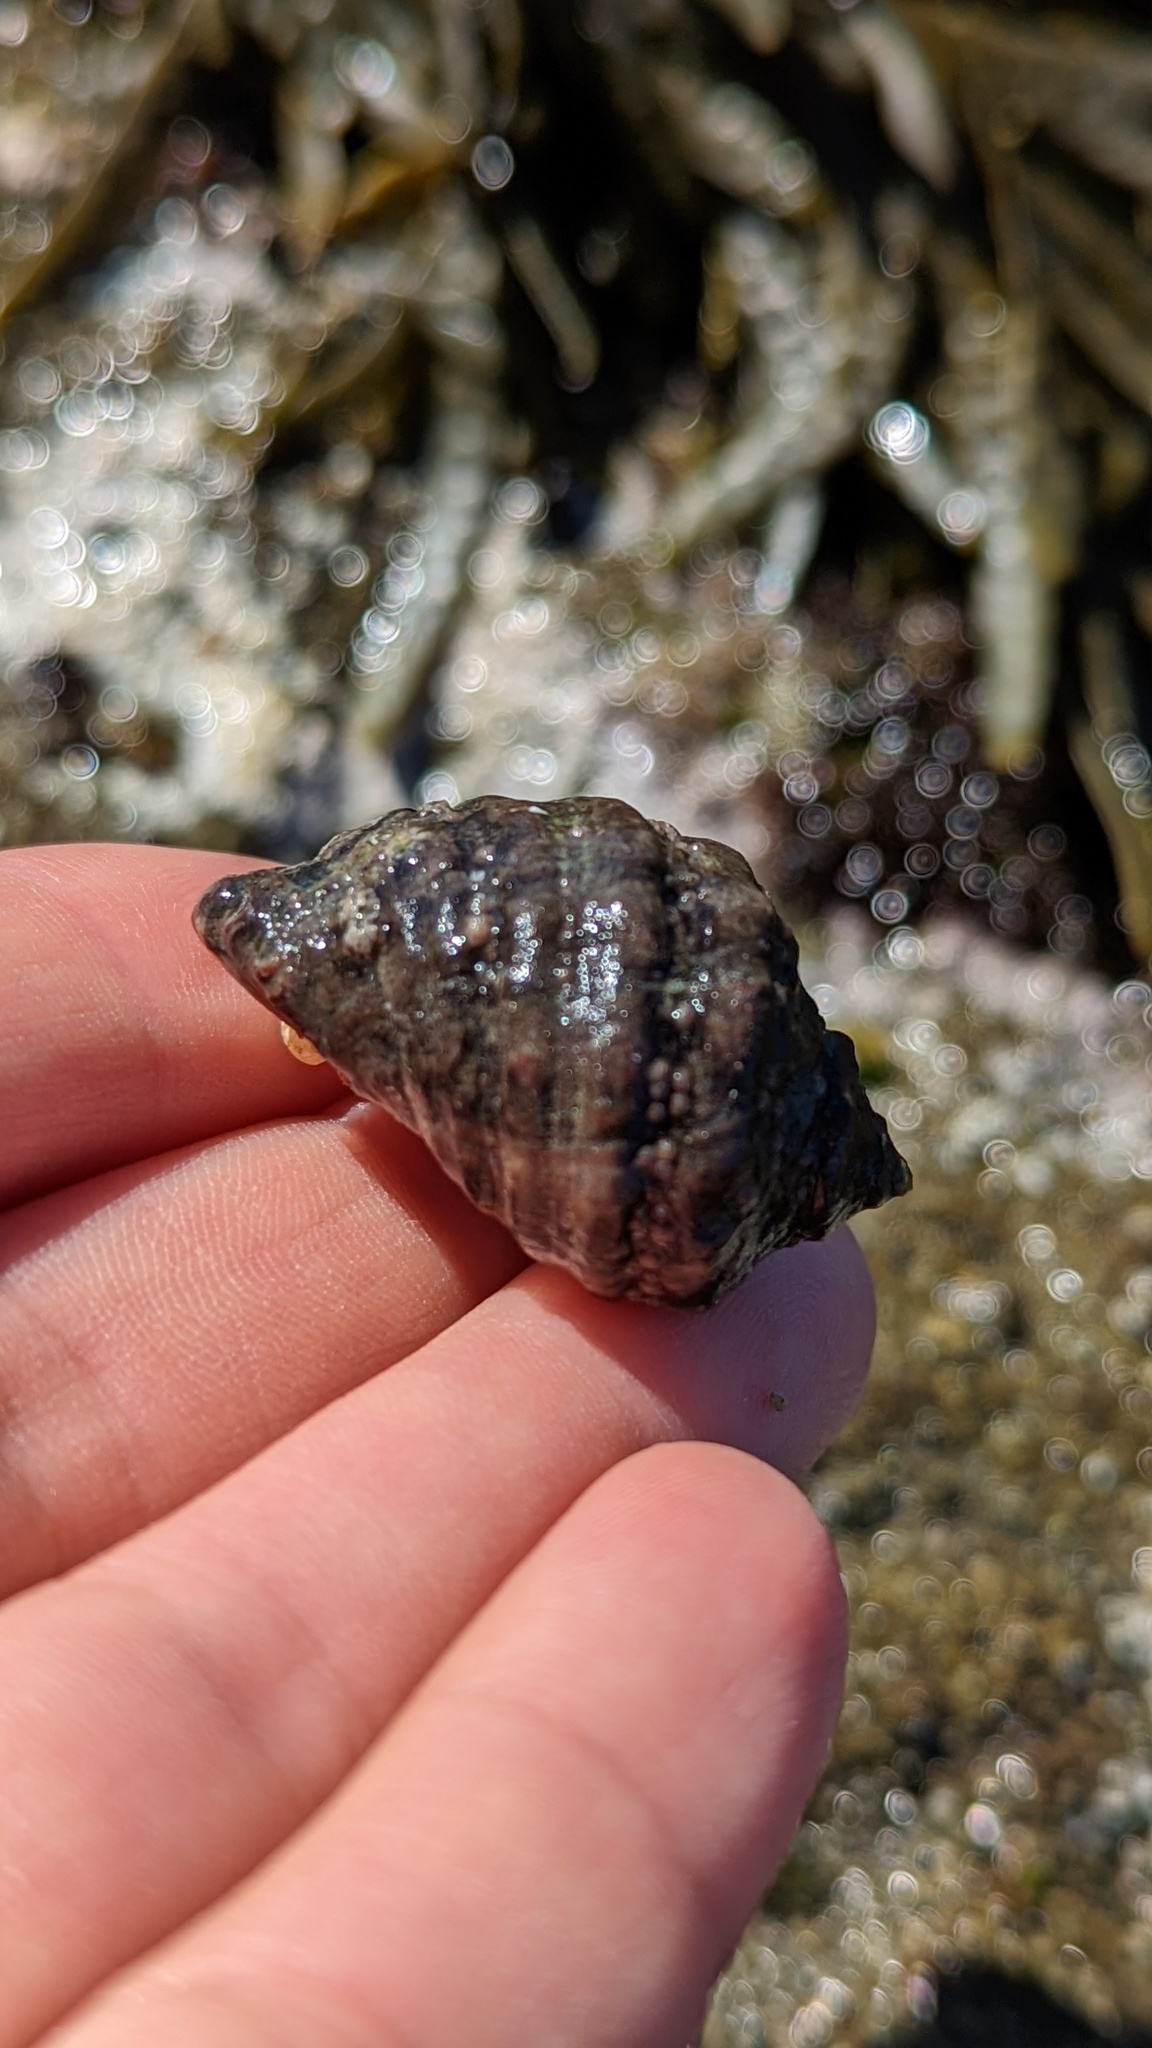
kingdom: Animalia
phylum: Mollusca
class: Gastropoda
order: Neogastropoda
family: Muricidae
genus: Mexacanthina
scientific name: Mexacanthina lugubris
